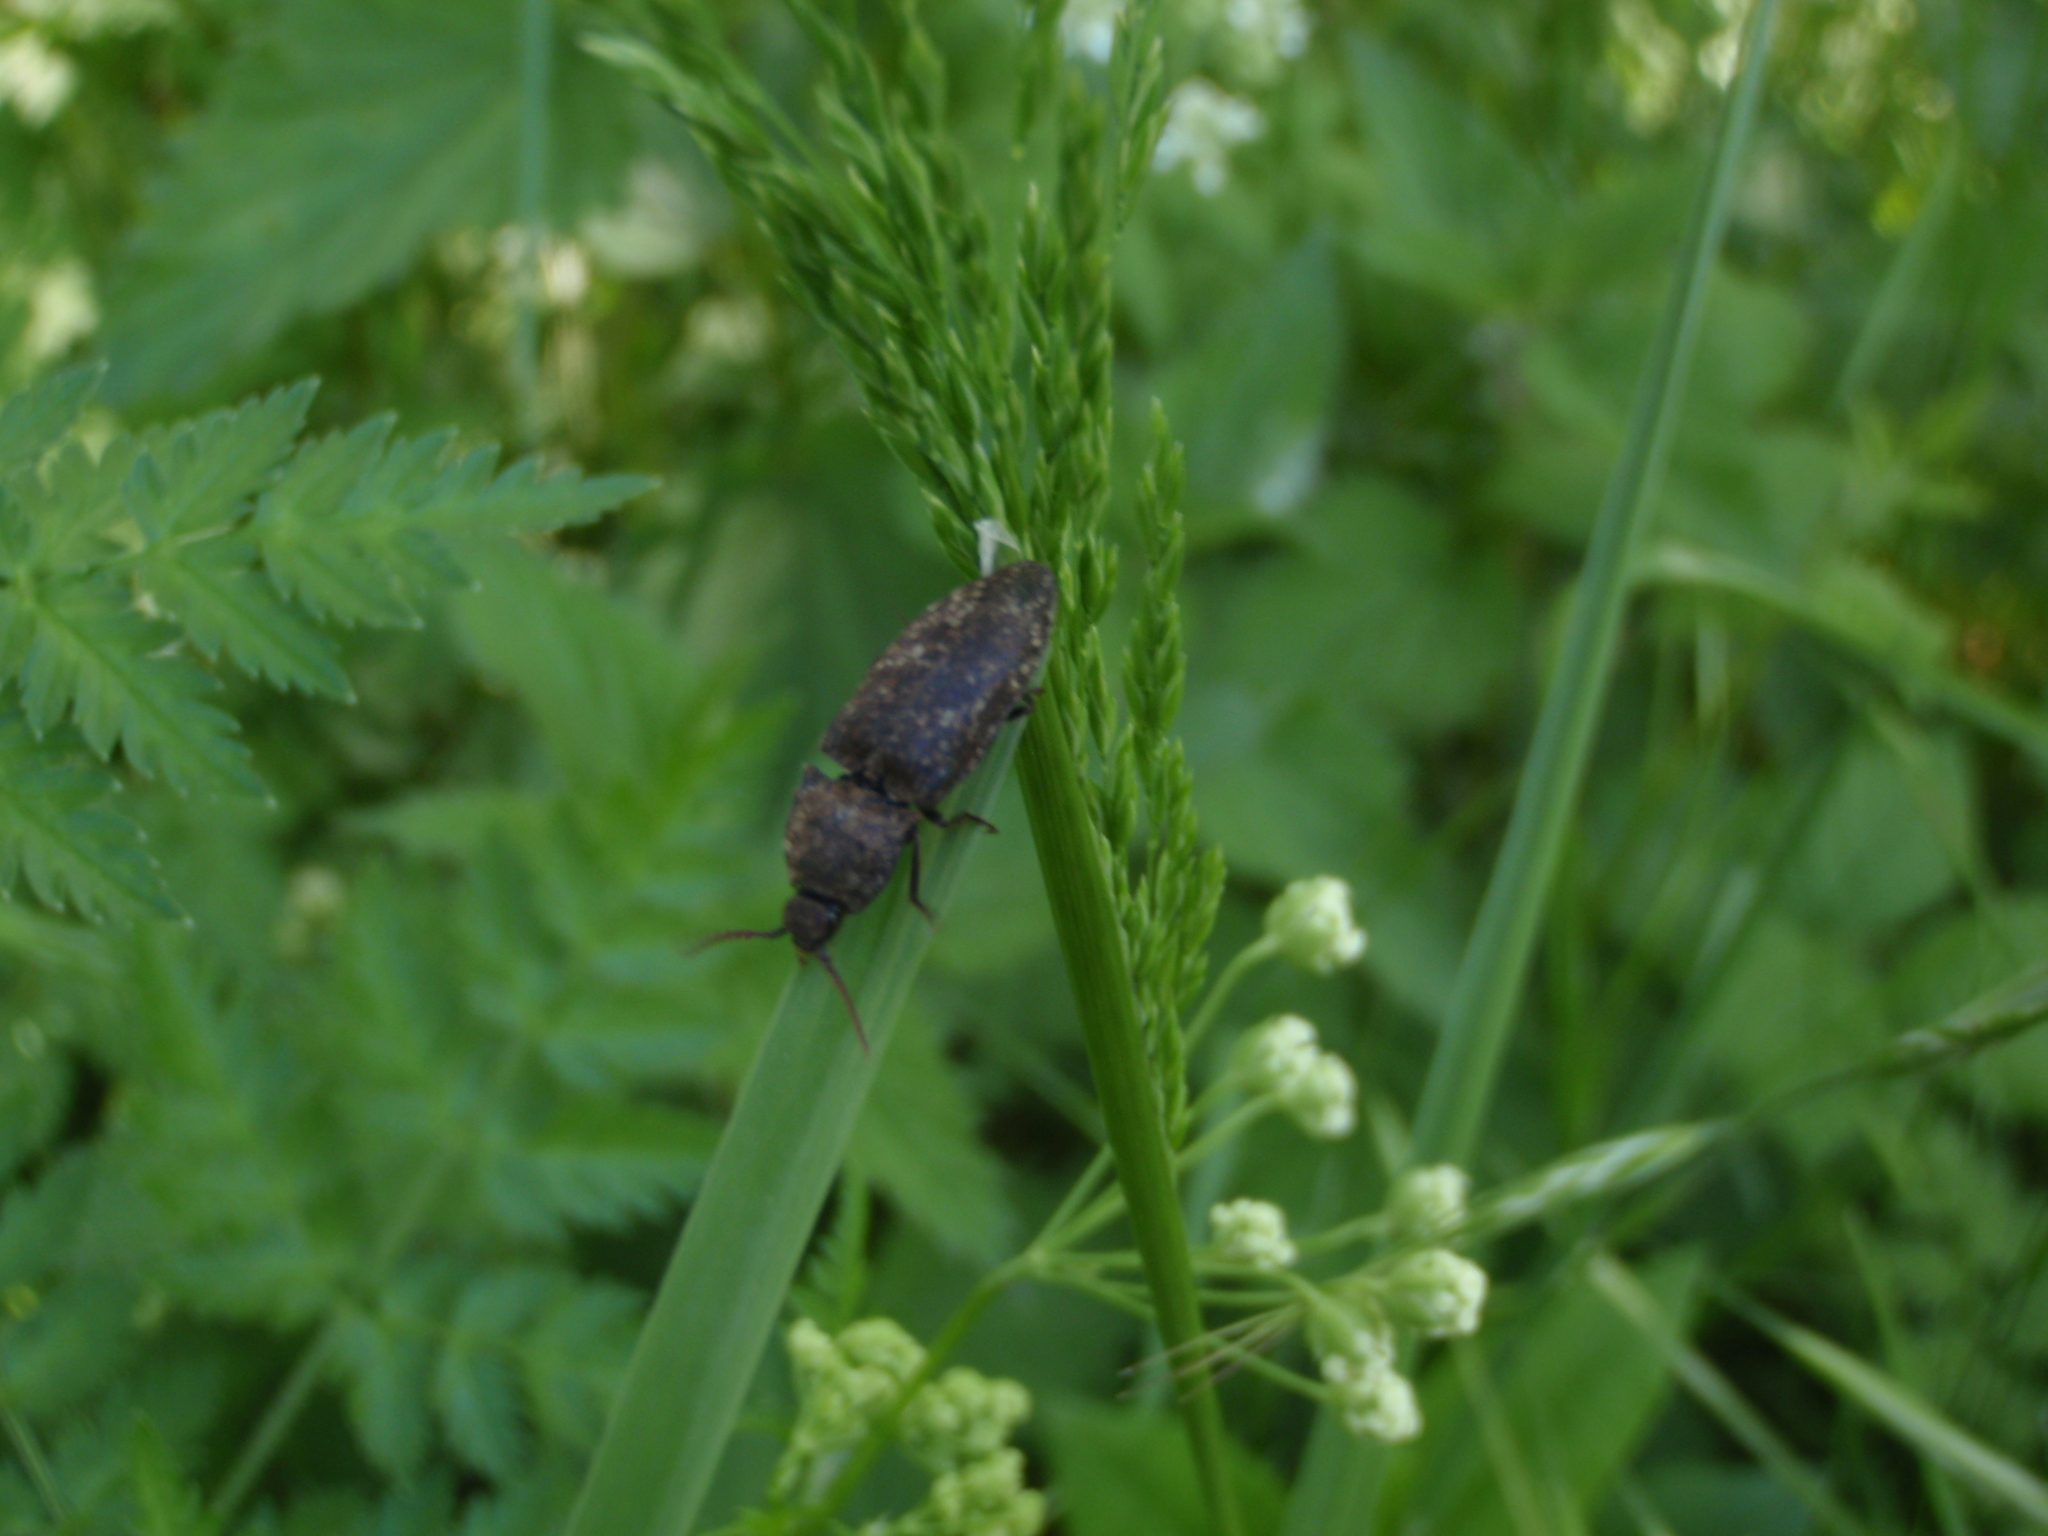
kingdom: Animalia
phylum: Arthropoda
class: Insecta
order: Coleoptera
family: Elateridae
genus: Agrypnus
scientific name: Agrypnus murinus
